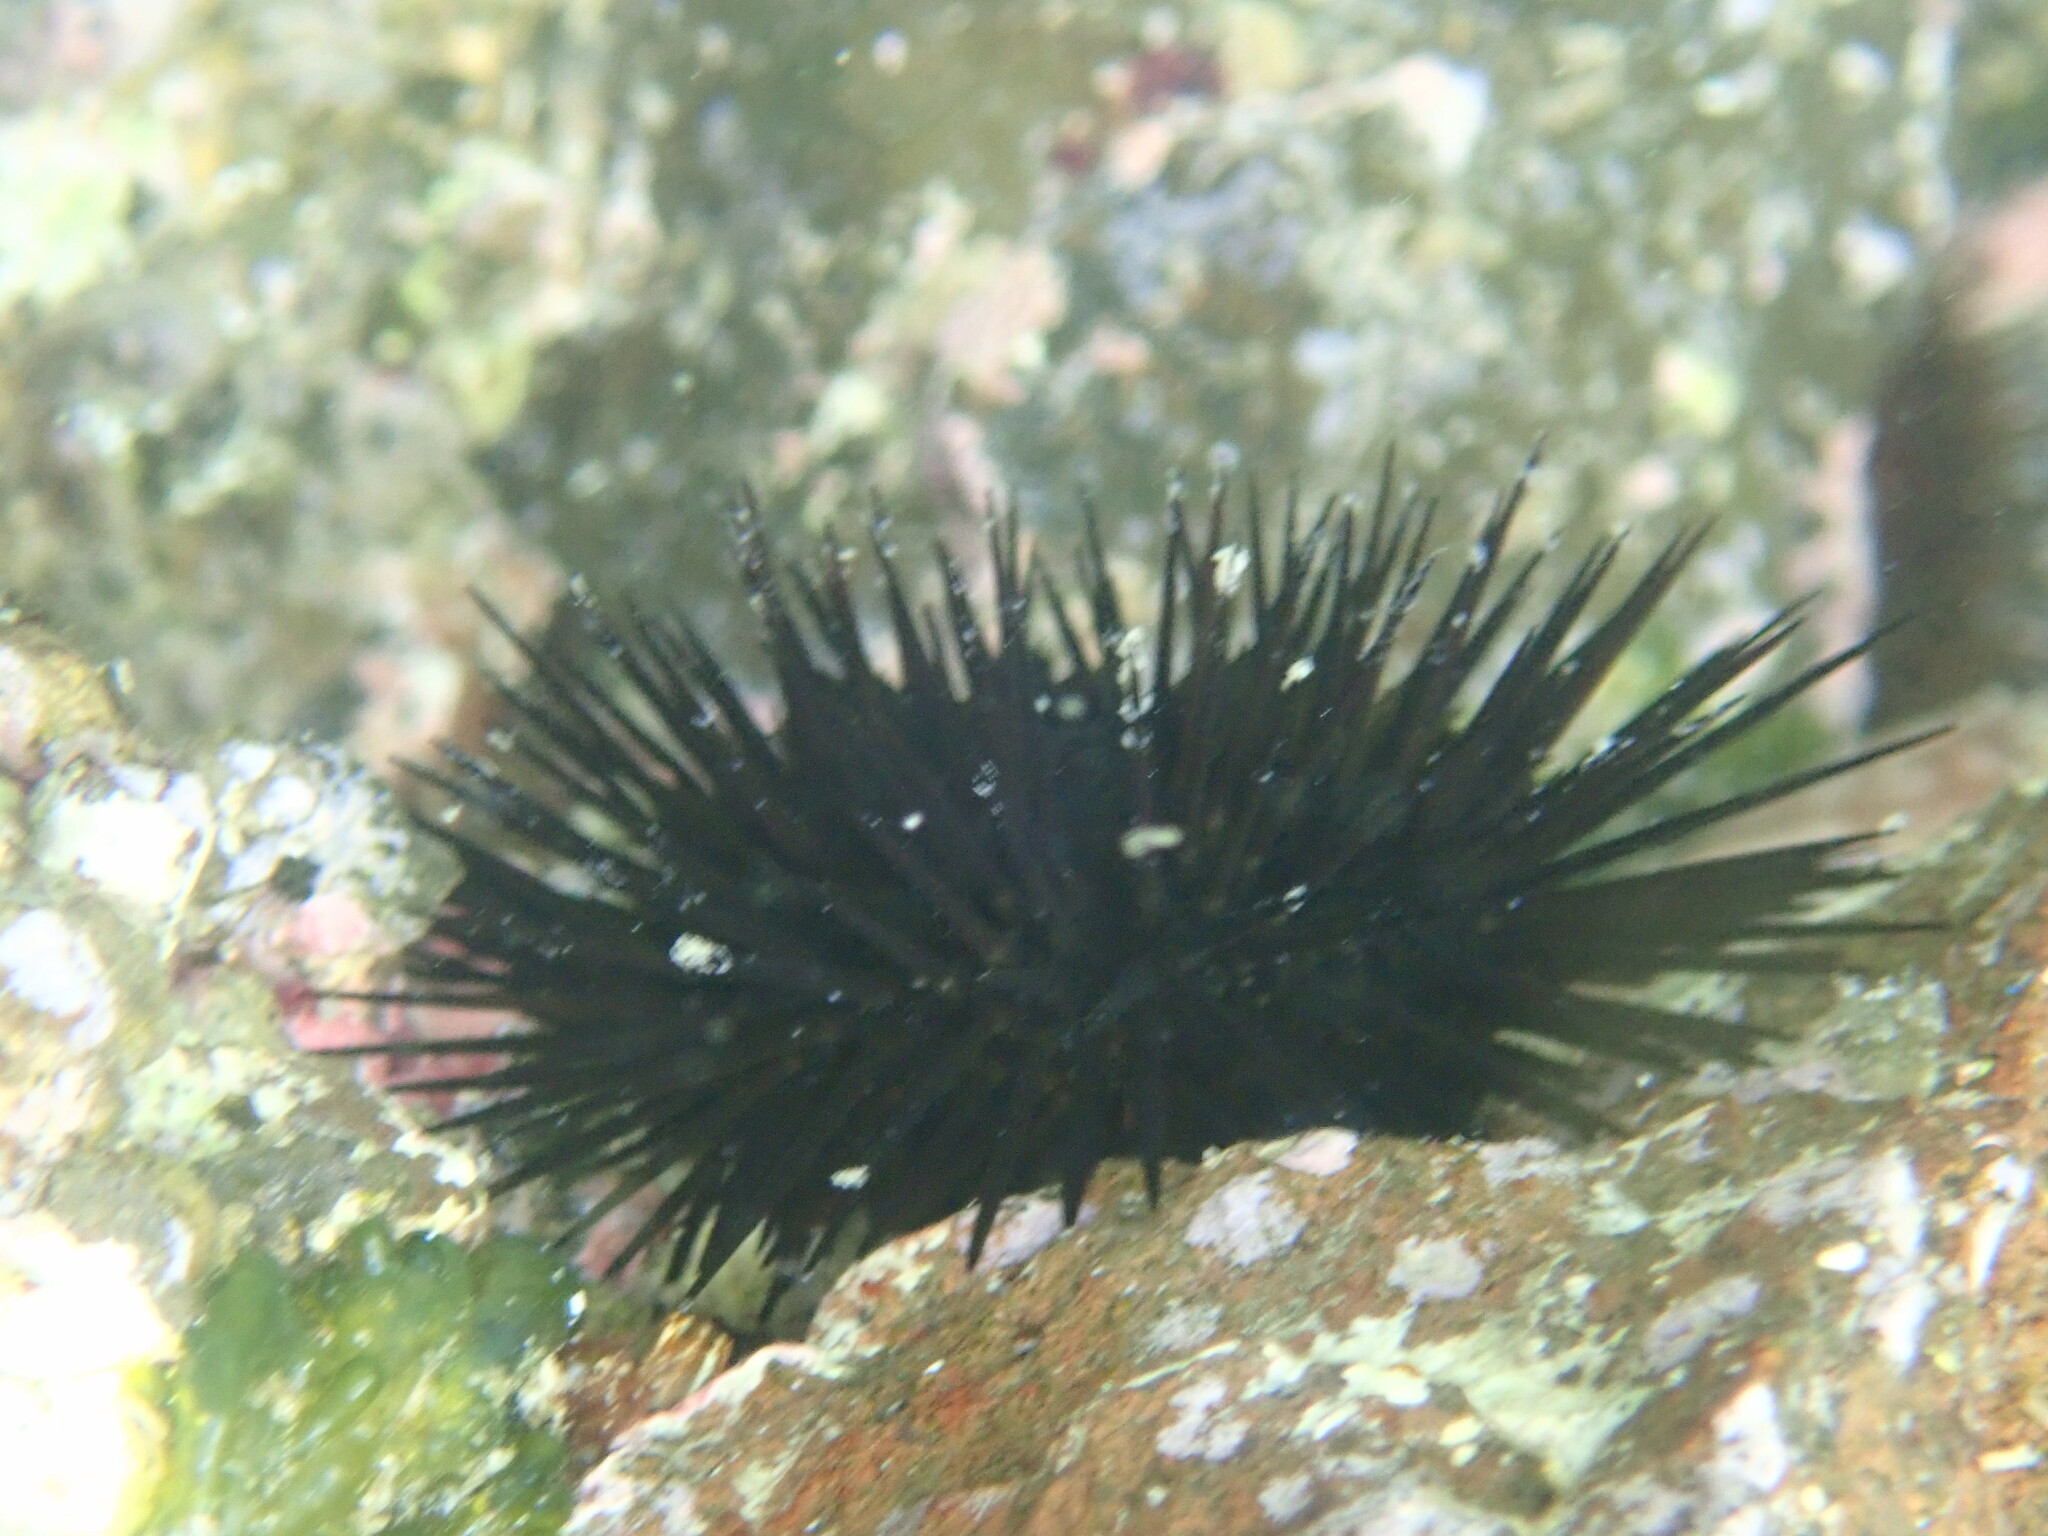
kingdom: Animalia
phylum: Echinodermata
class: Echinoidea
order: Arbacioida
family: Arbaciidae
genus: Arbacia
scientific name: Arbacia lixula
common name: Black sea urchin
